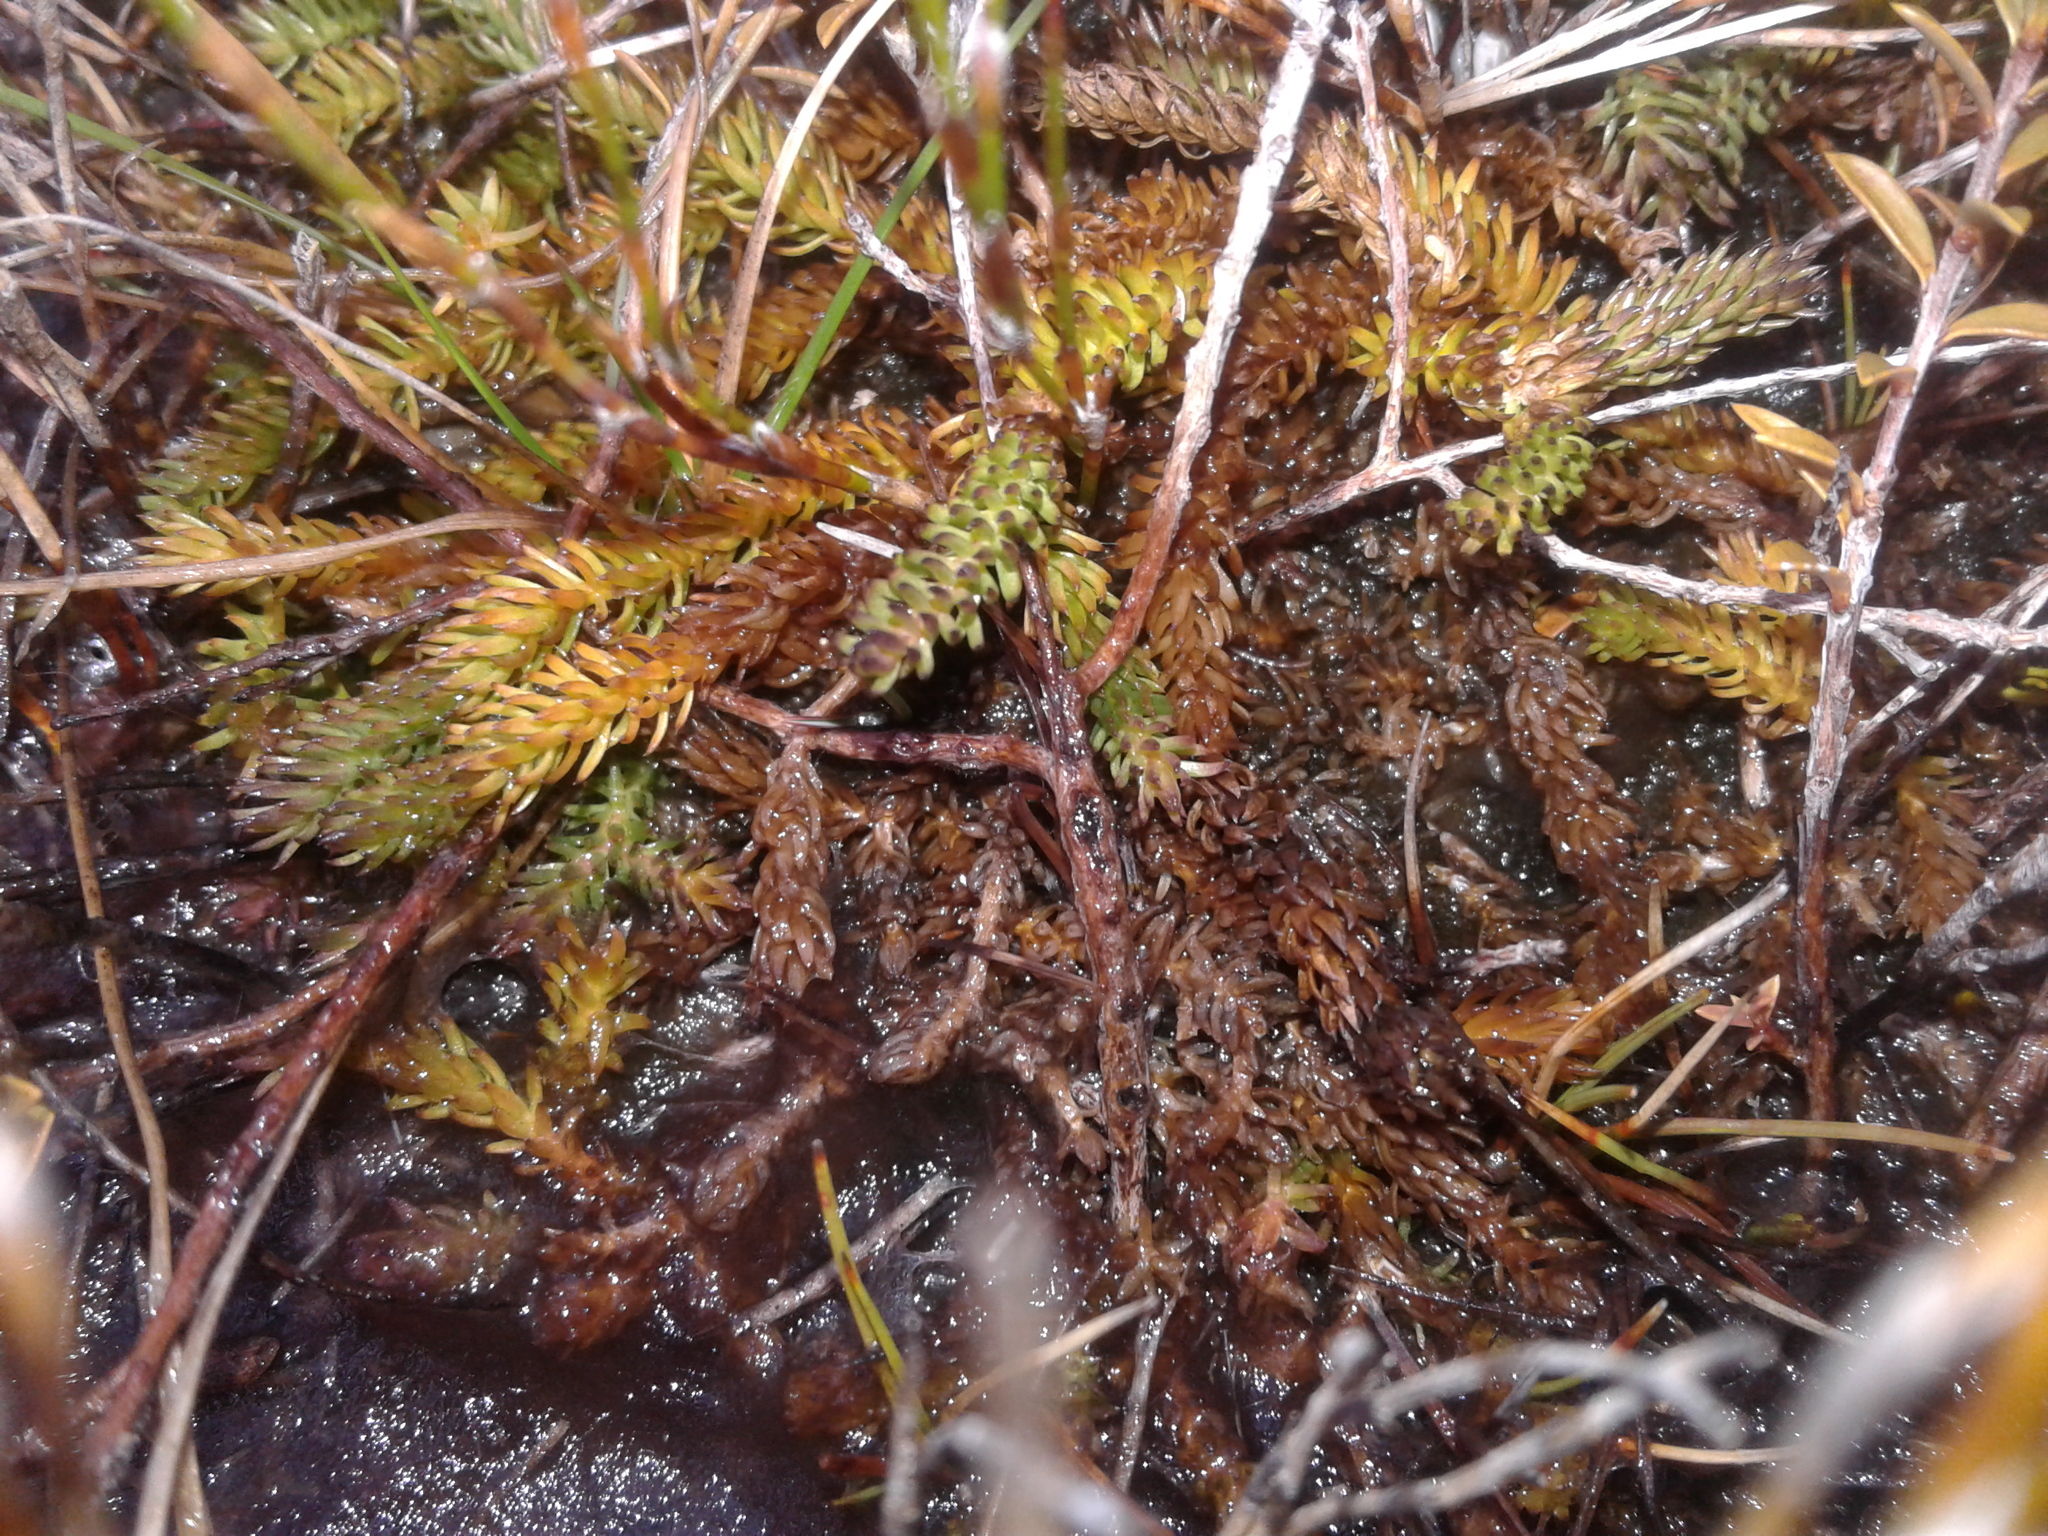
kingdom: Plantae
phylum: Tracheophyta
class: Lycopodiopsida
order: Lycopodiales
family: Lycopodiaceae
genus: Lateristachys
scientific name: Lateristachys diffusa
